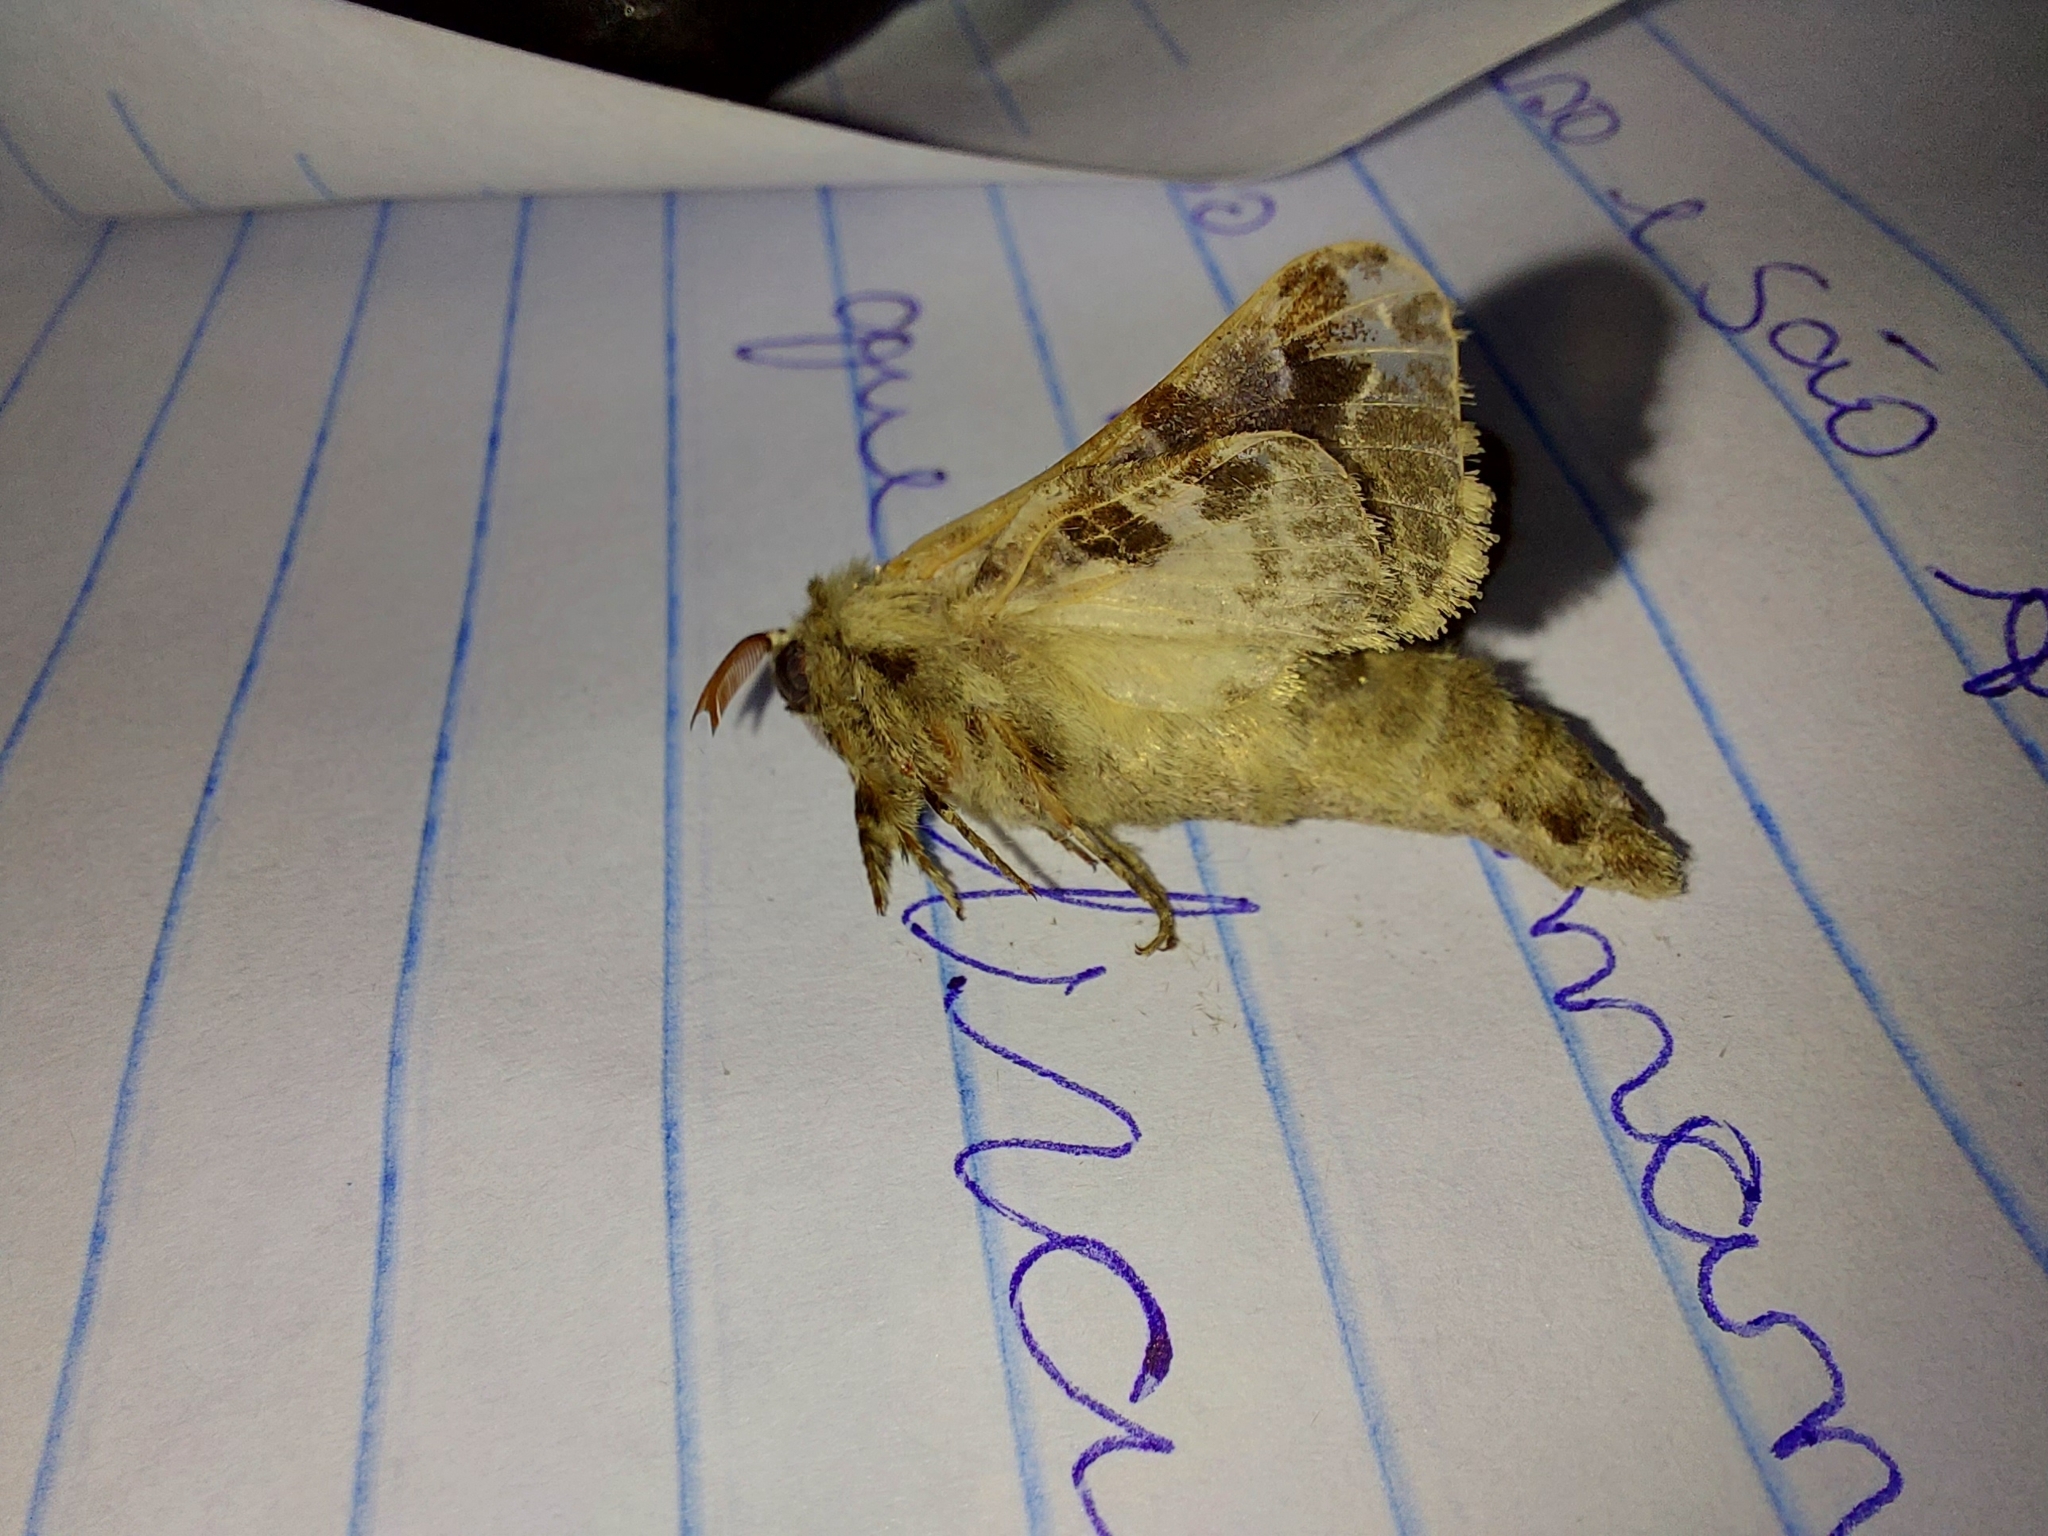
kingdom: Animalia
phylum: Arthropoda
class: Insecta
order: Lepidoptera
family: Cossidae
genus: Hypopta
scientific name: Hypopta superba
